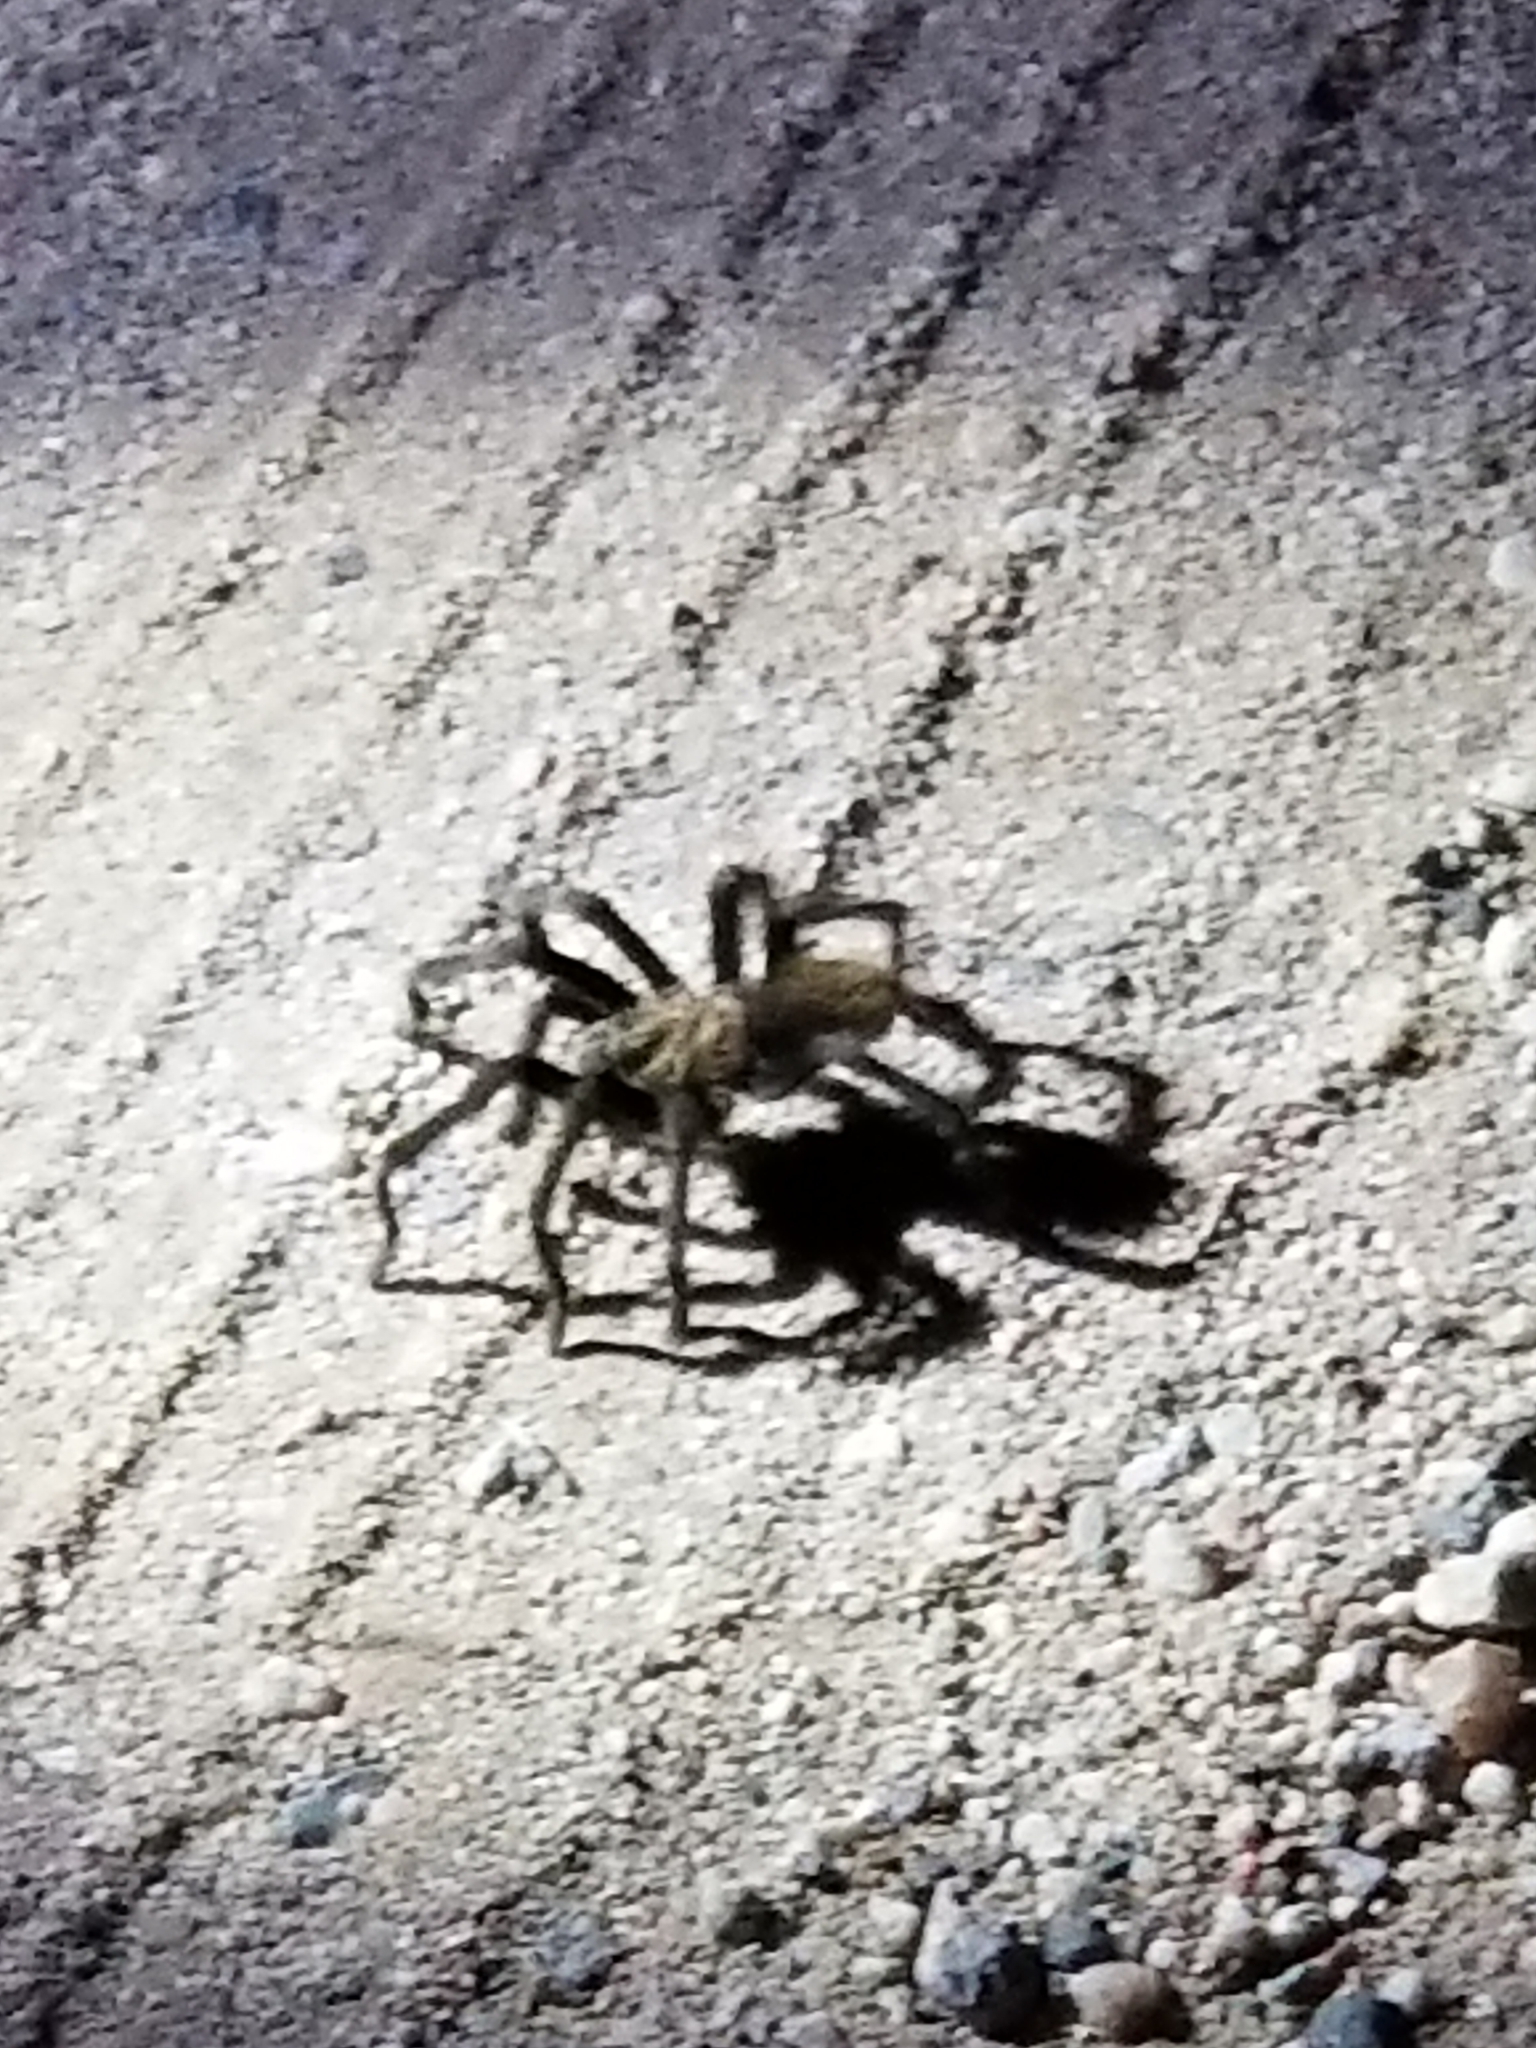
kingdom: Animalia
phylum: Arthropoda
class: Arachnida
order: Araneae
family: Theraphosidae
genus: Aphonopelma
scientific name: Aphonopelma iodius
